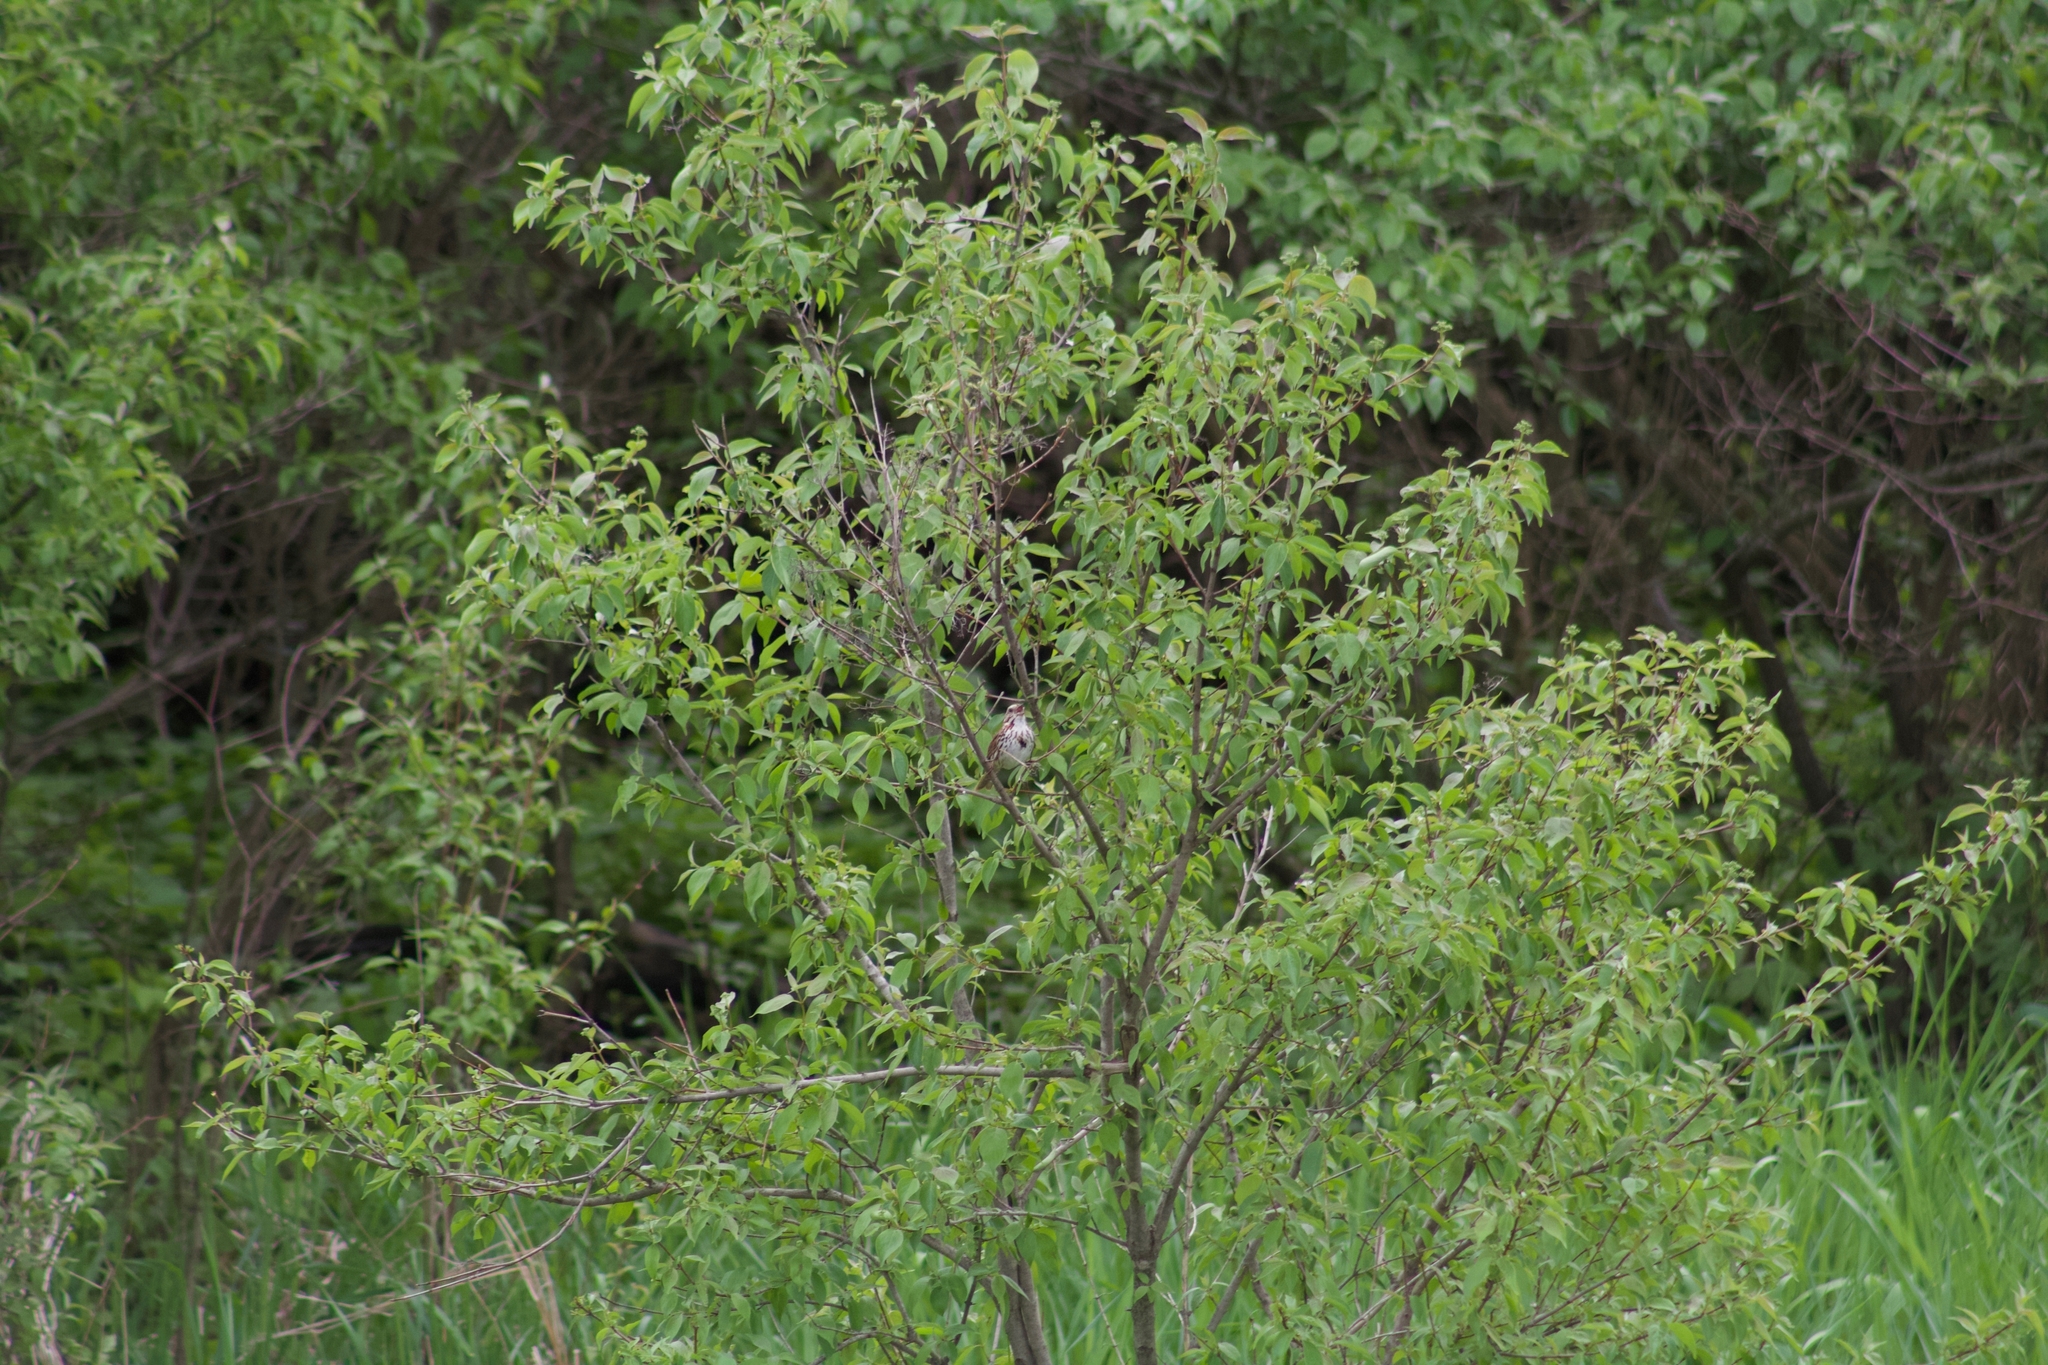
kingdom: Animalia
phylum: Chordata
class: Aves
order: Passeriformes
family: Passerellidae
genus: Melospiza
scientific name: Melospiza melodia
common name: Song sparrow
